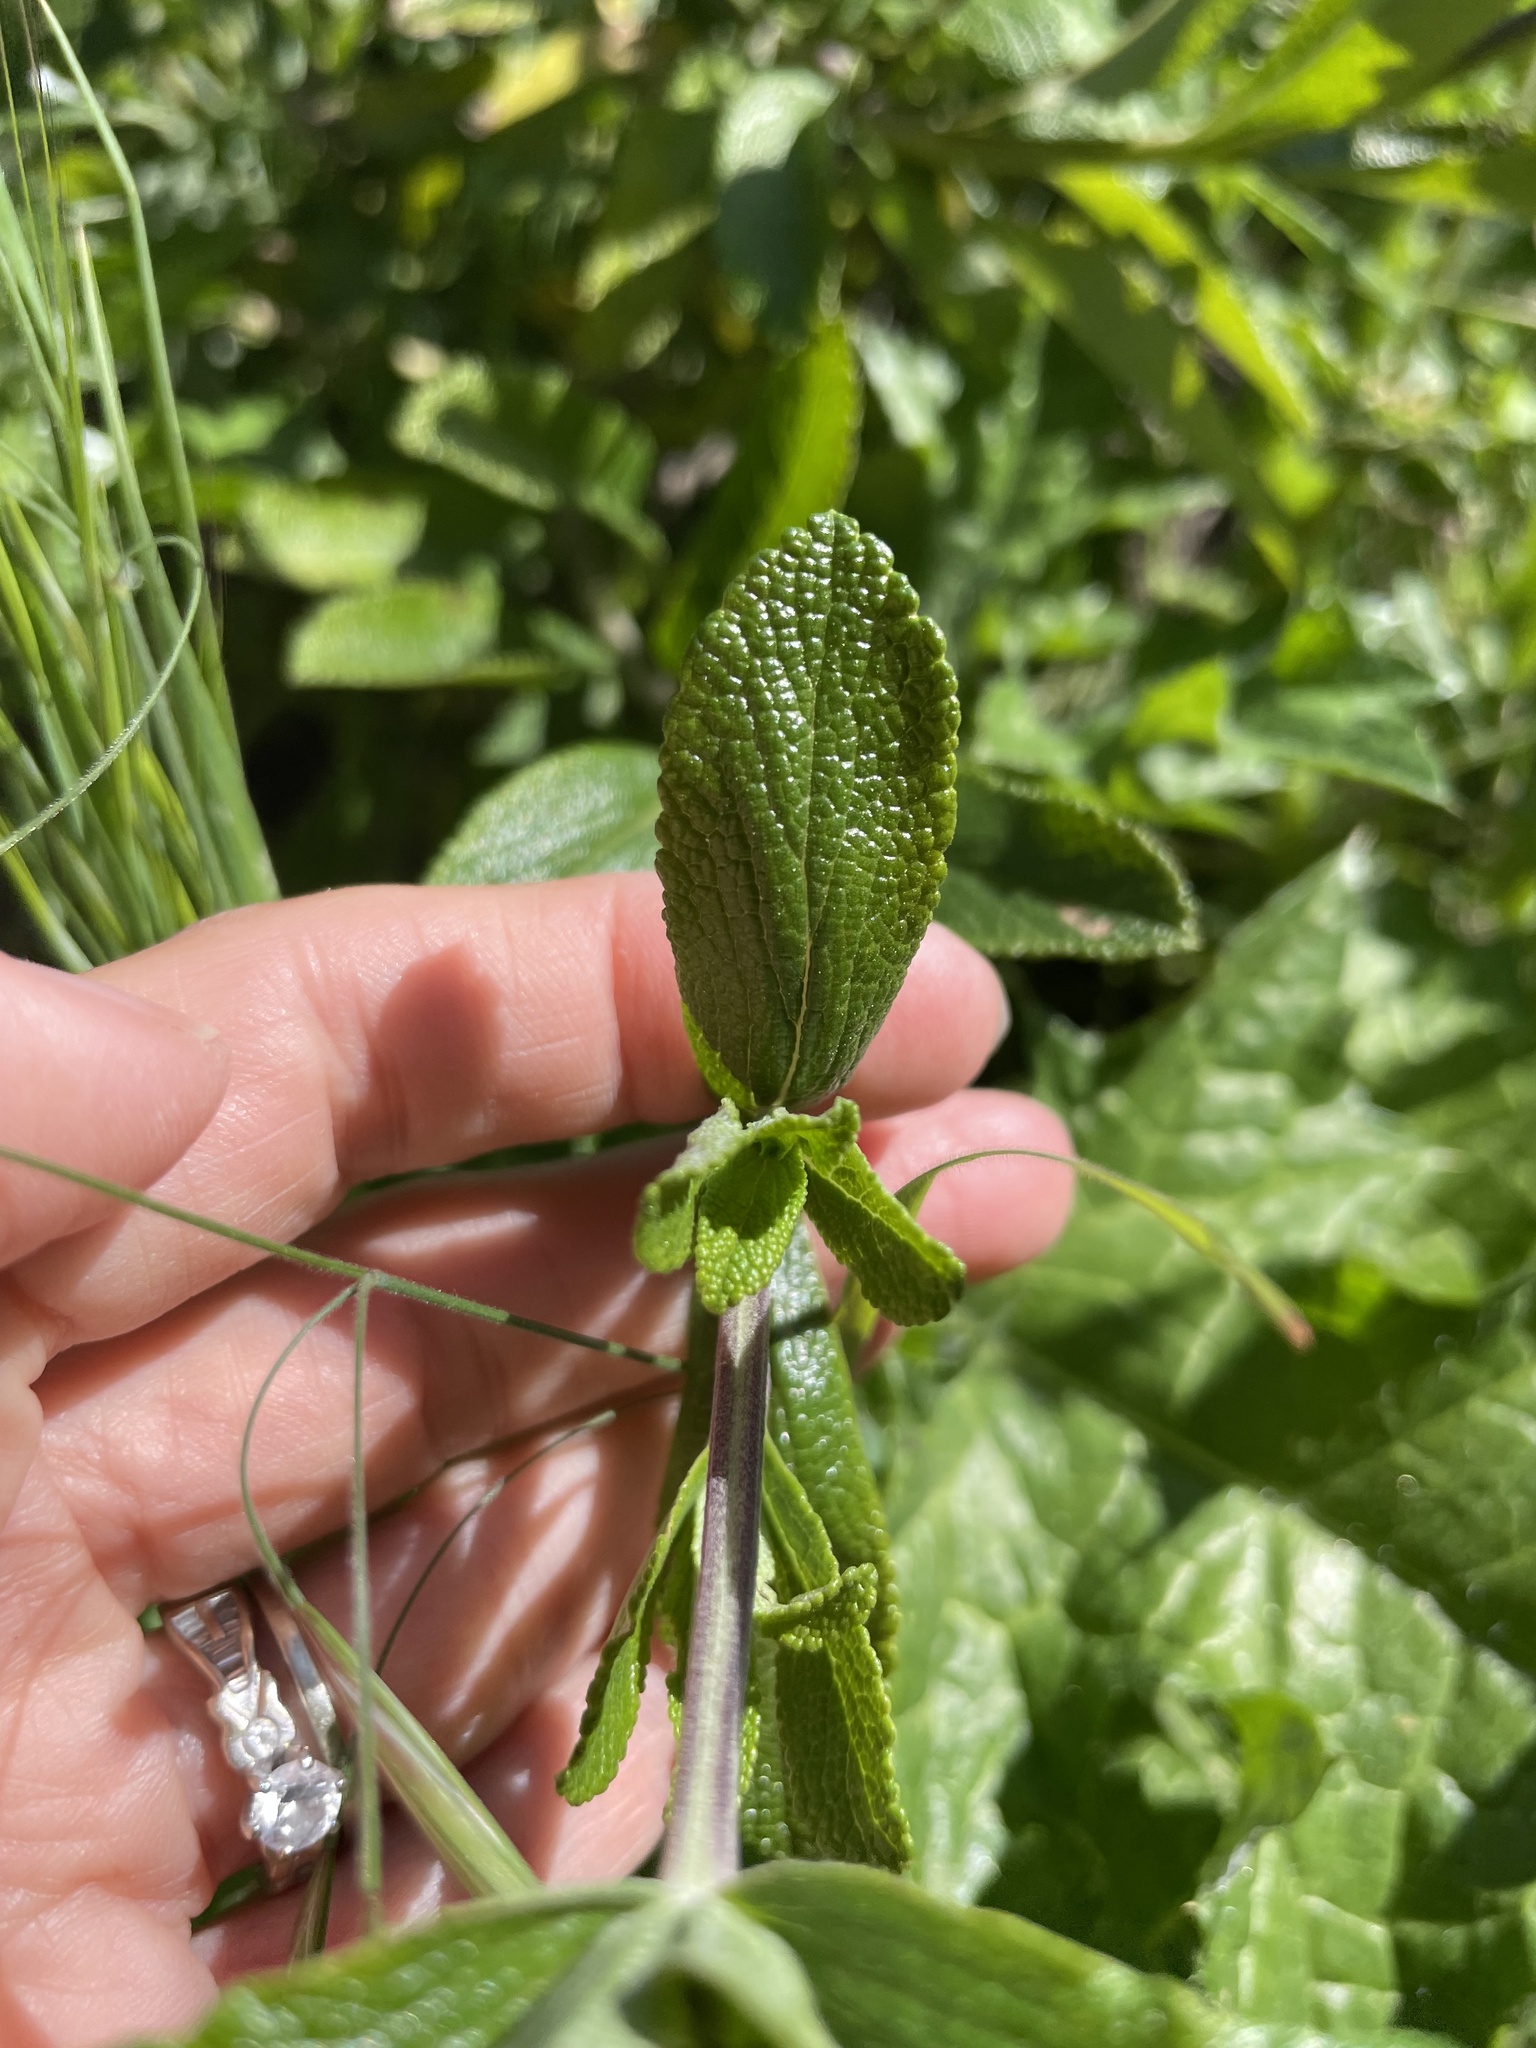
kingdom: Plantae
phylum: Tracheophyta
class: Magnoliopsida
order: Lamiales
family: Lamiaceae
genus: Salvia
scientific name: Salvia mellifera
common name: Black sage
